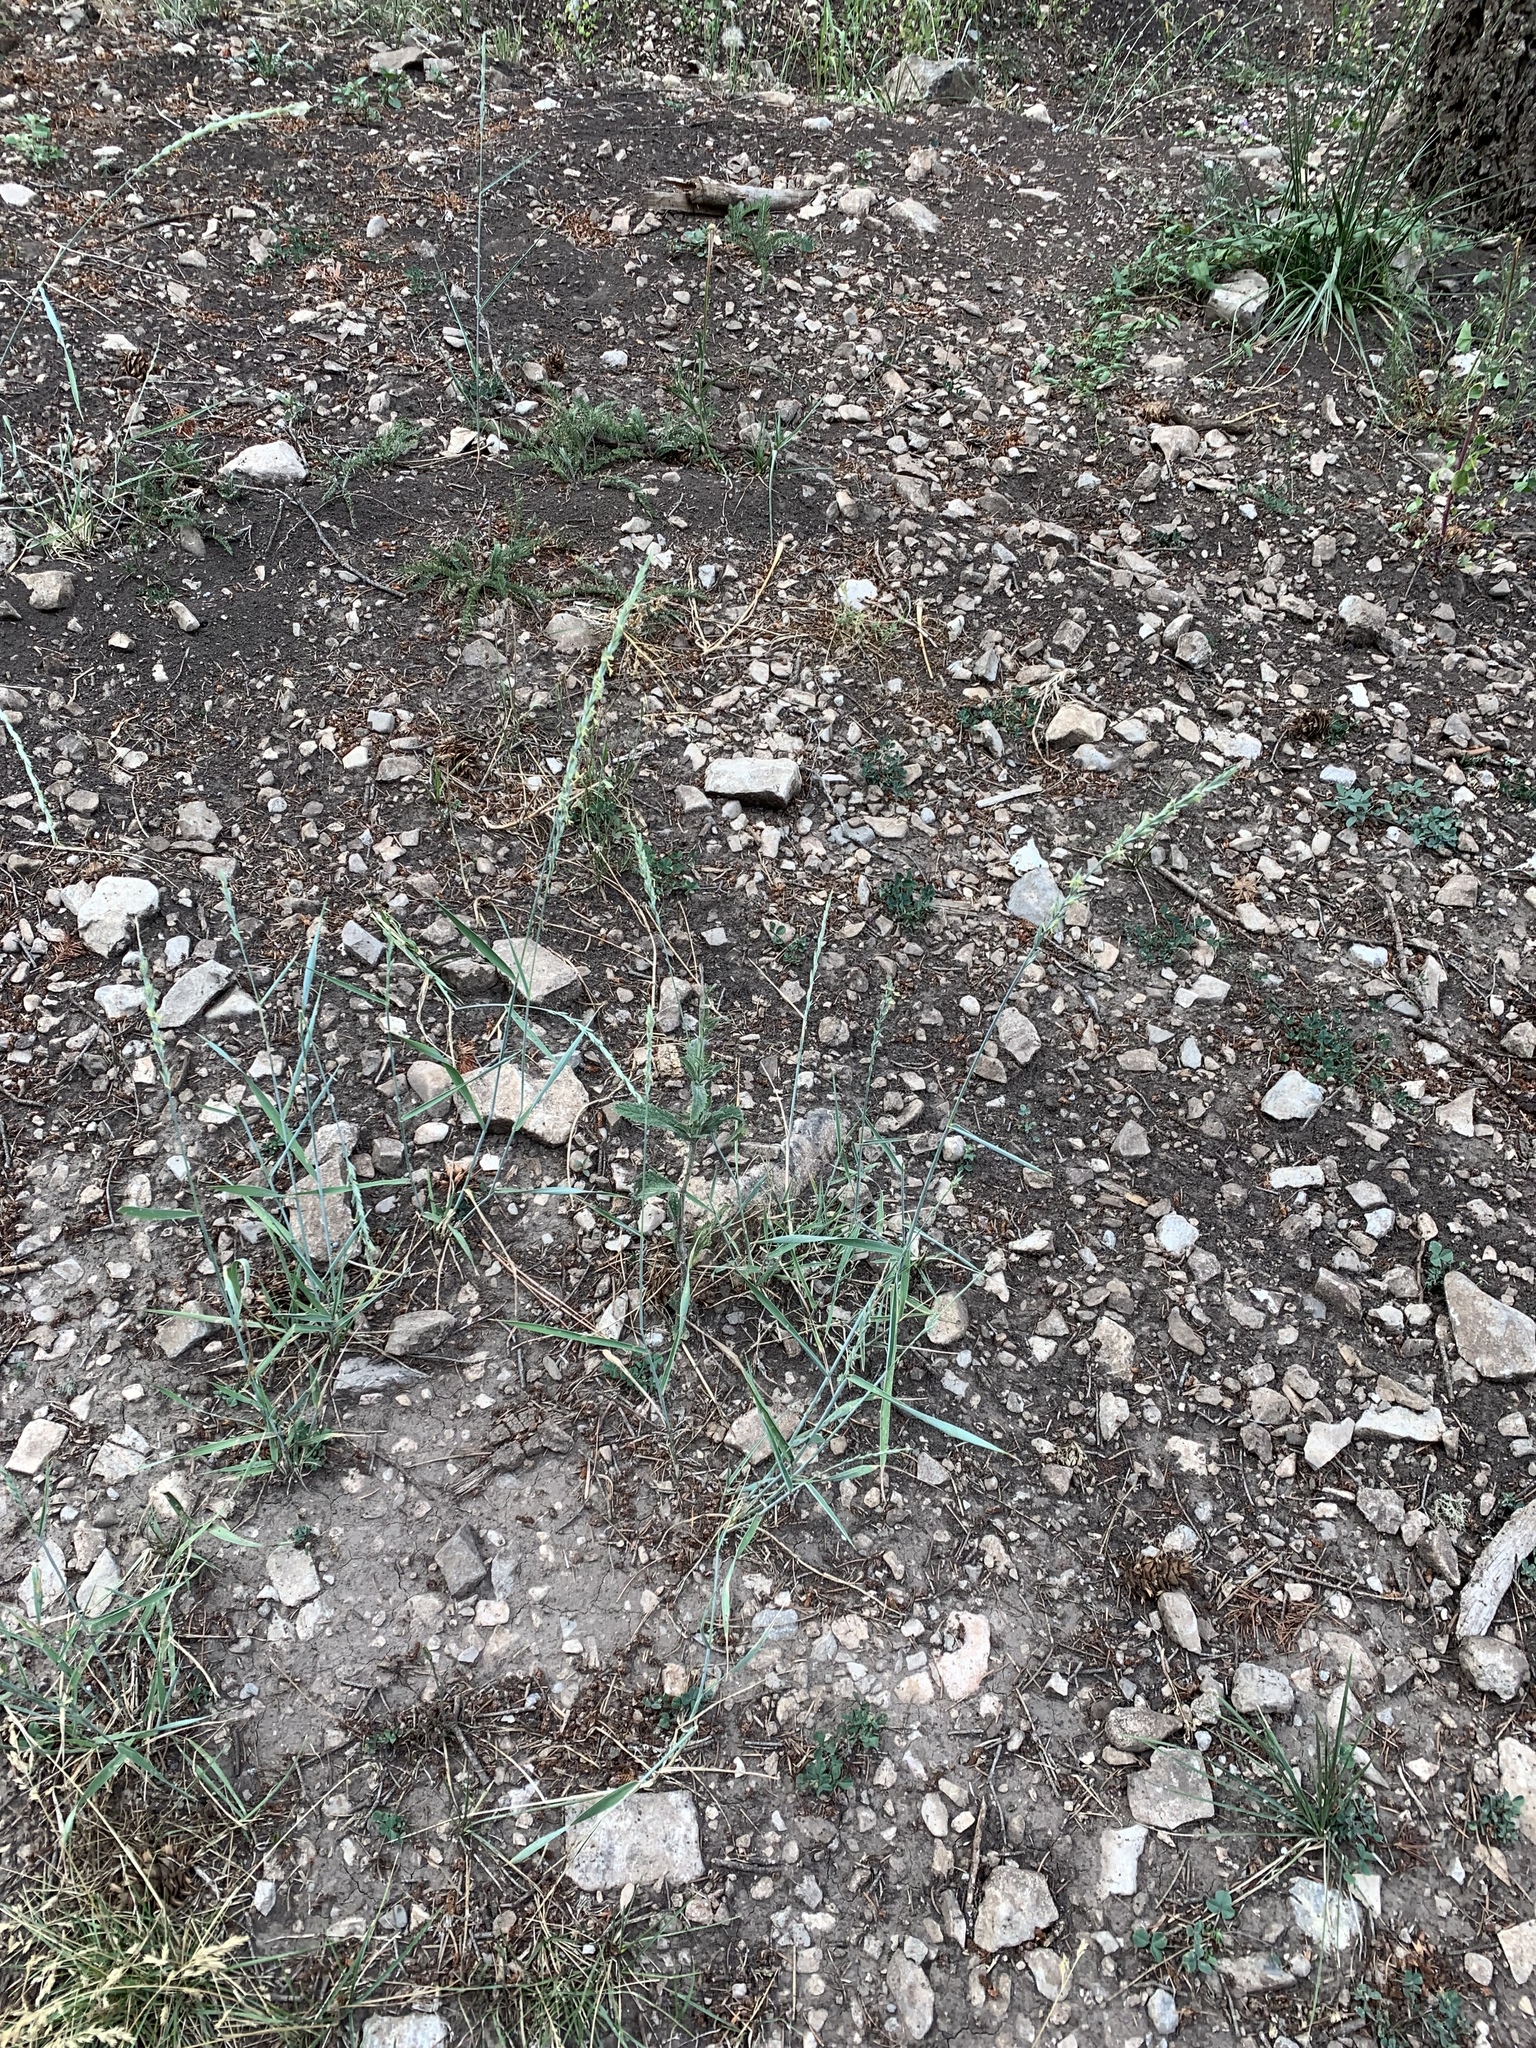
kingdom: Plantae
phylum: Tracheophyta
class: Liliopsida
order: Poales
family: Poaceae
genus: Thinopyrum
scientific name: Thinopyrum intermedium
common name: Intermediate wheatgrass
